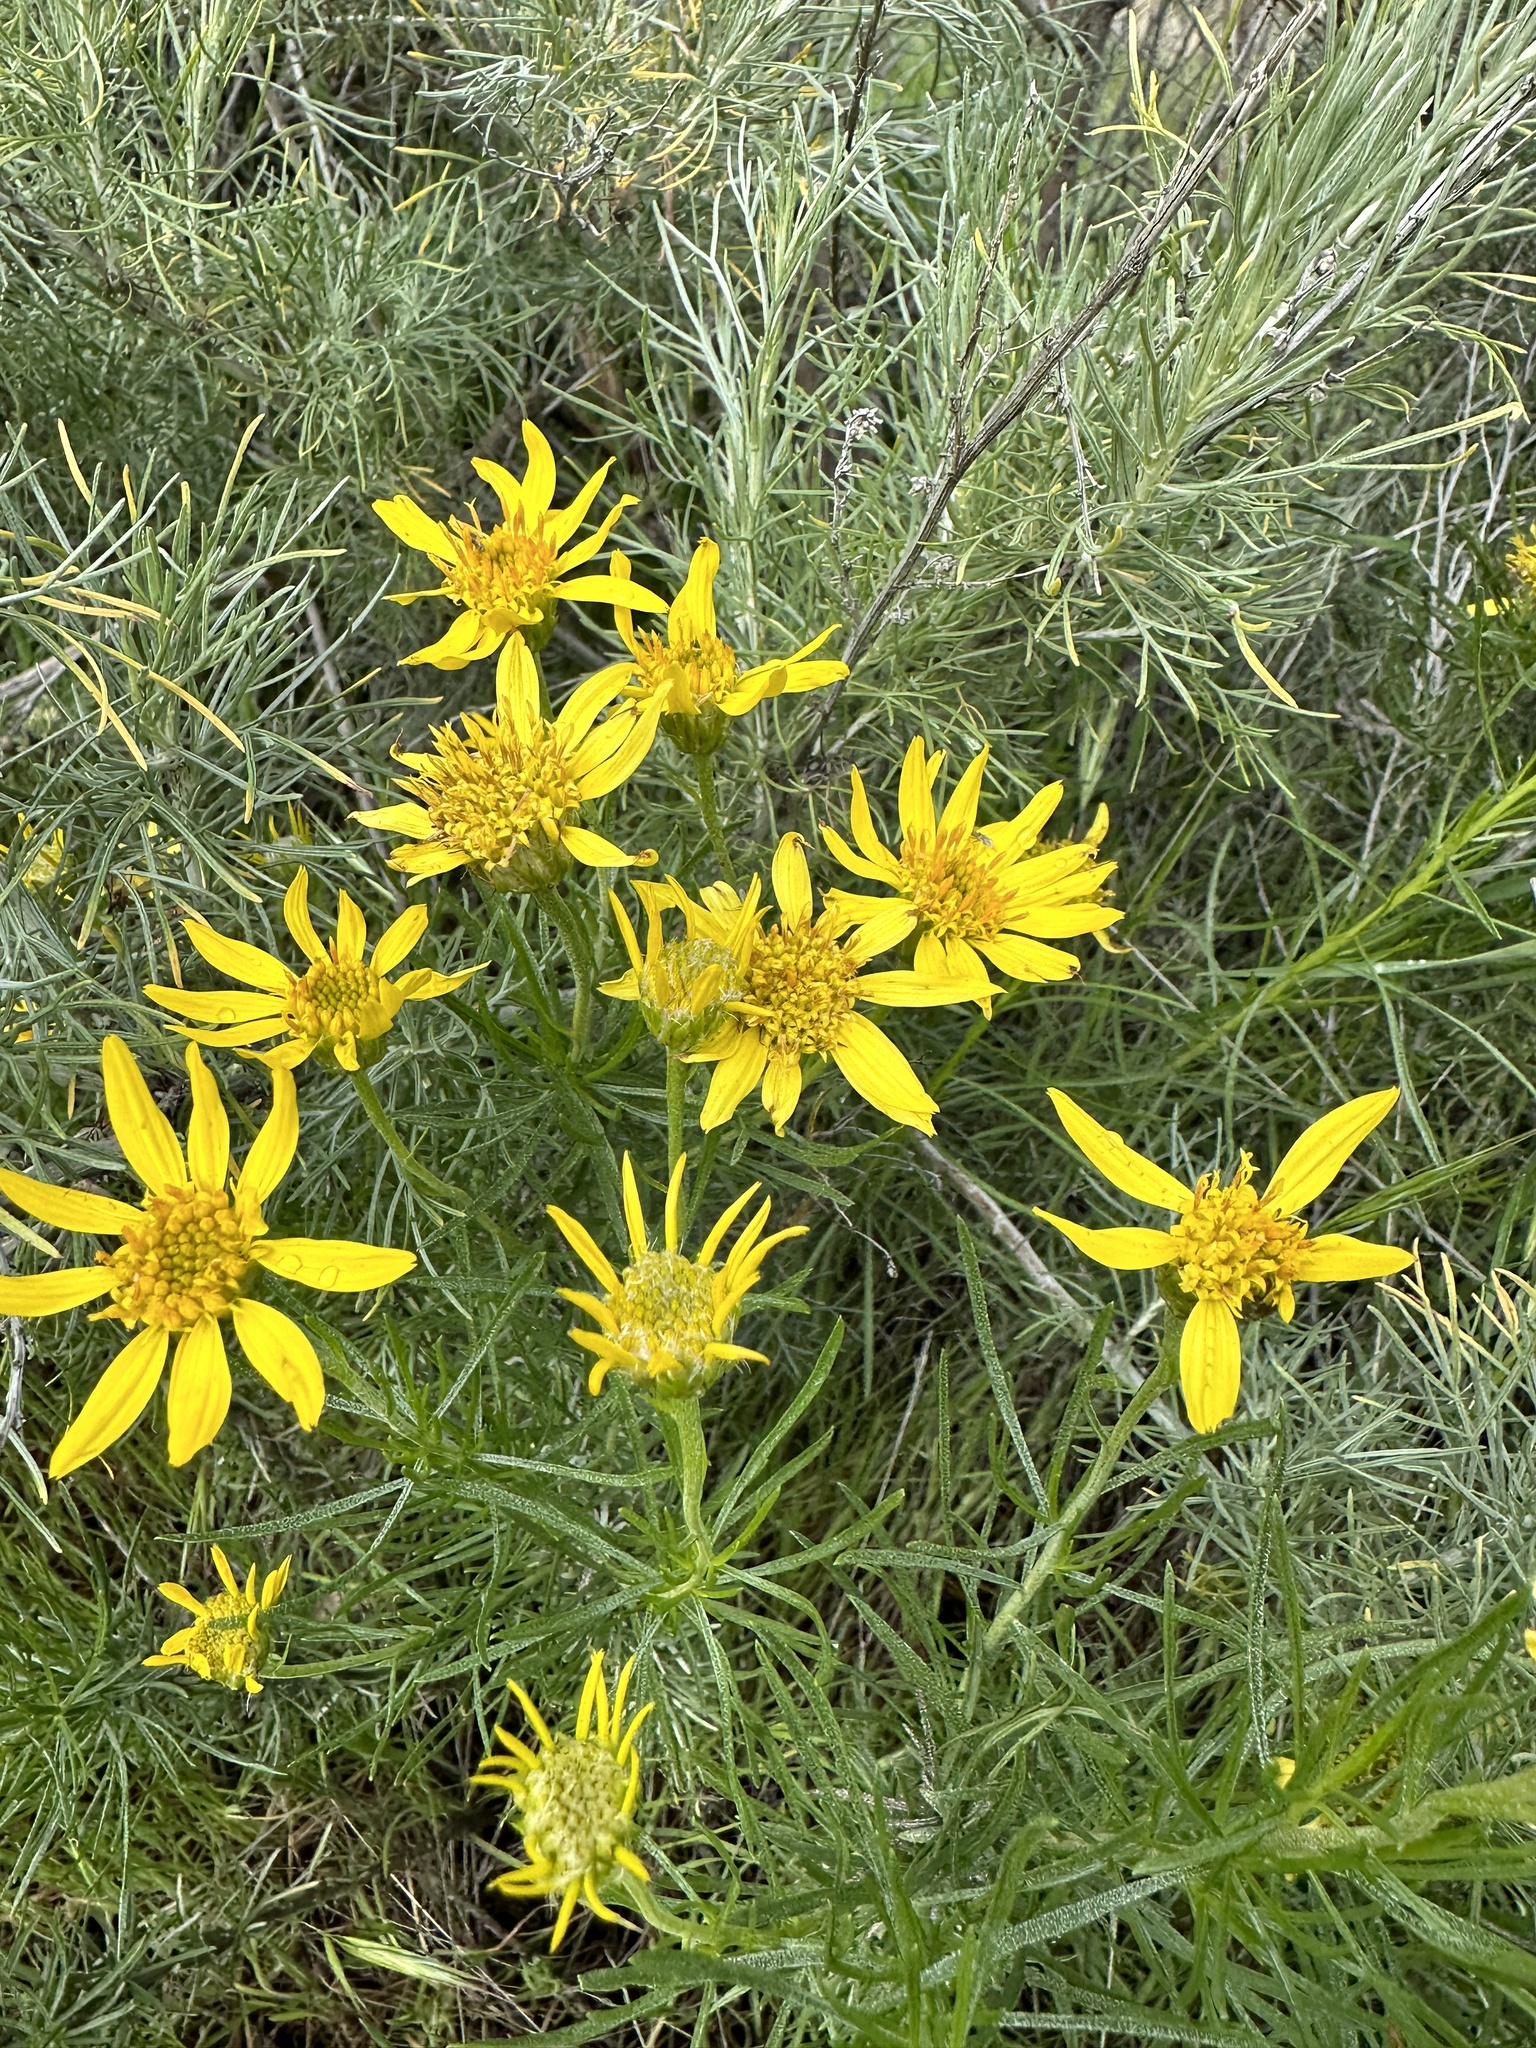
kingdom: Plantae
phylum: Tracheophyta
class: Magnoliopsida
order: Asterales
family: Asteraceae
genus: Ericameria
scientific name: Ericameria linearifolia
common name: Interior goldenbush
